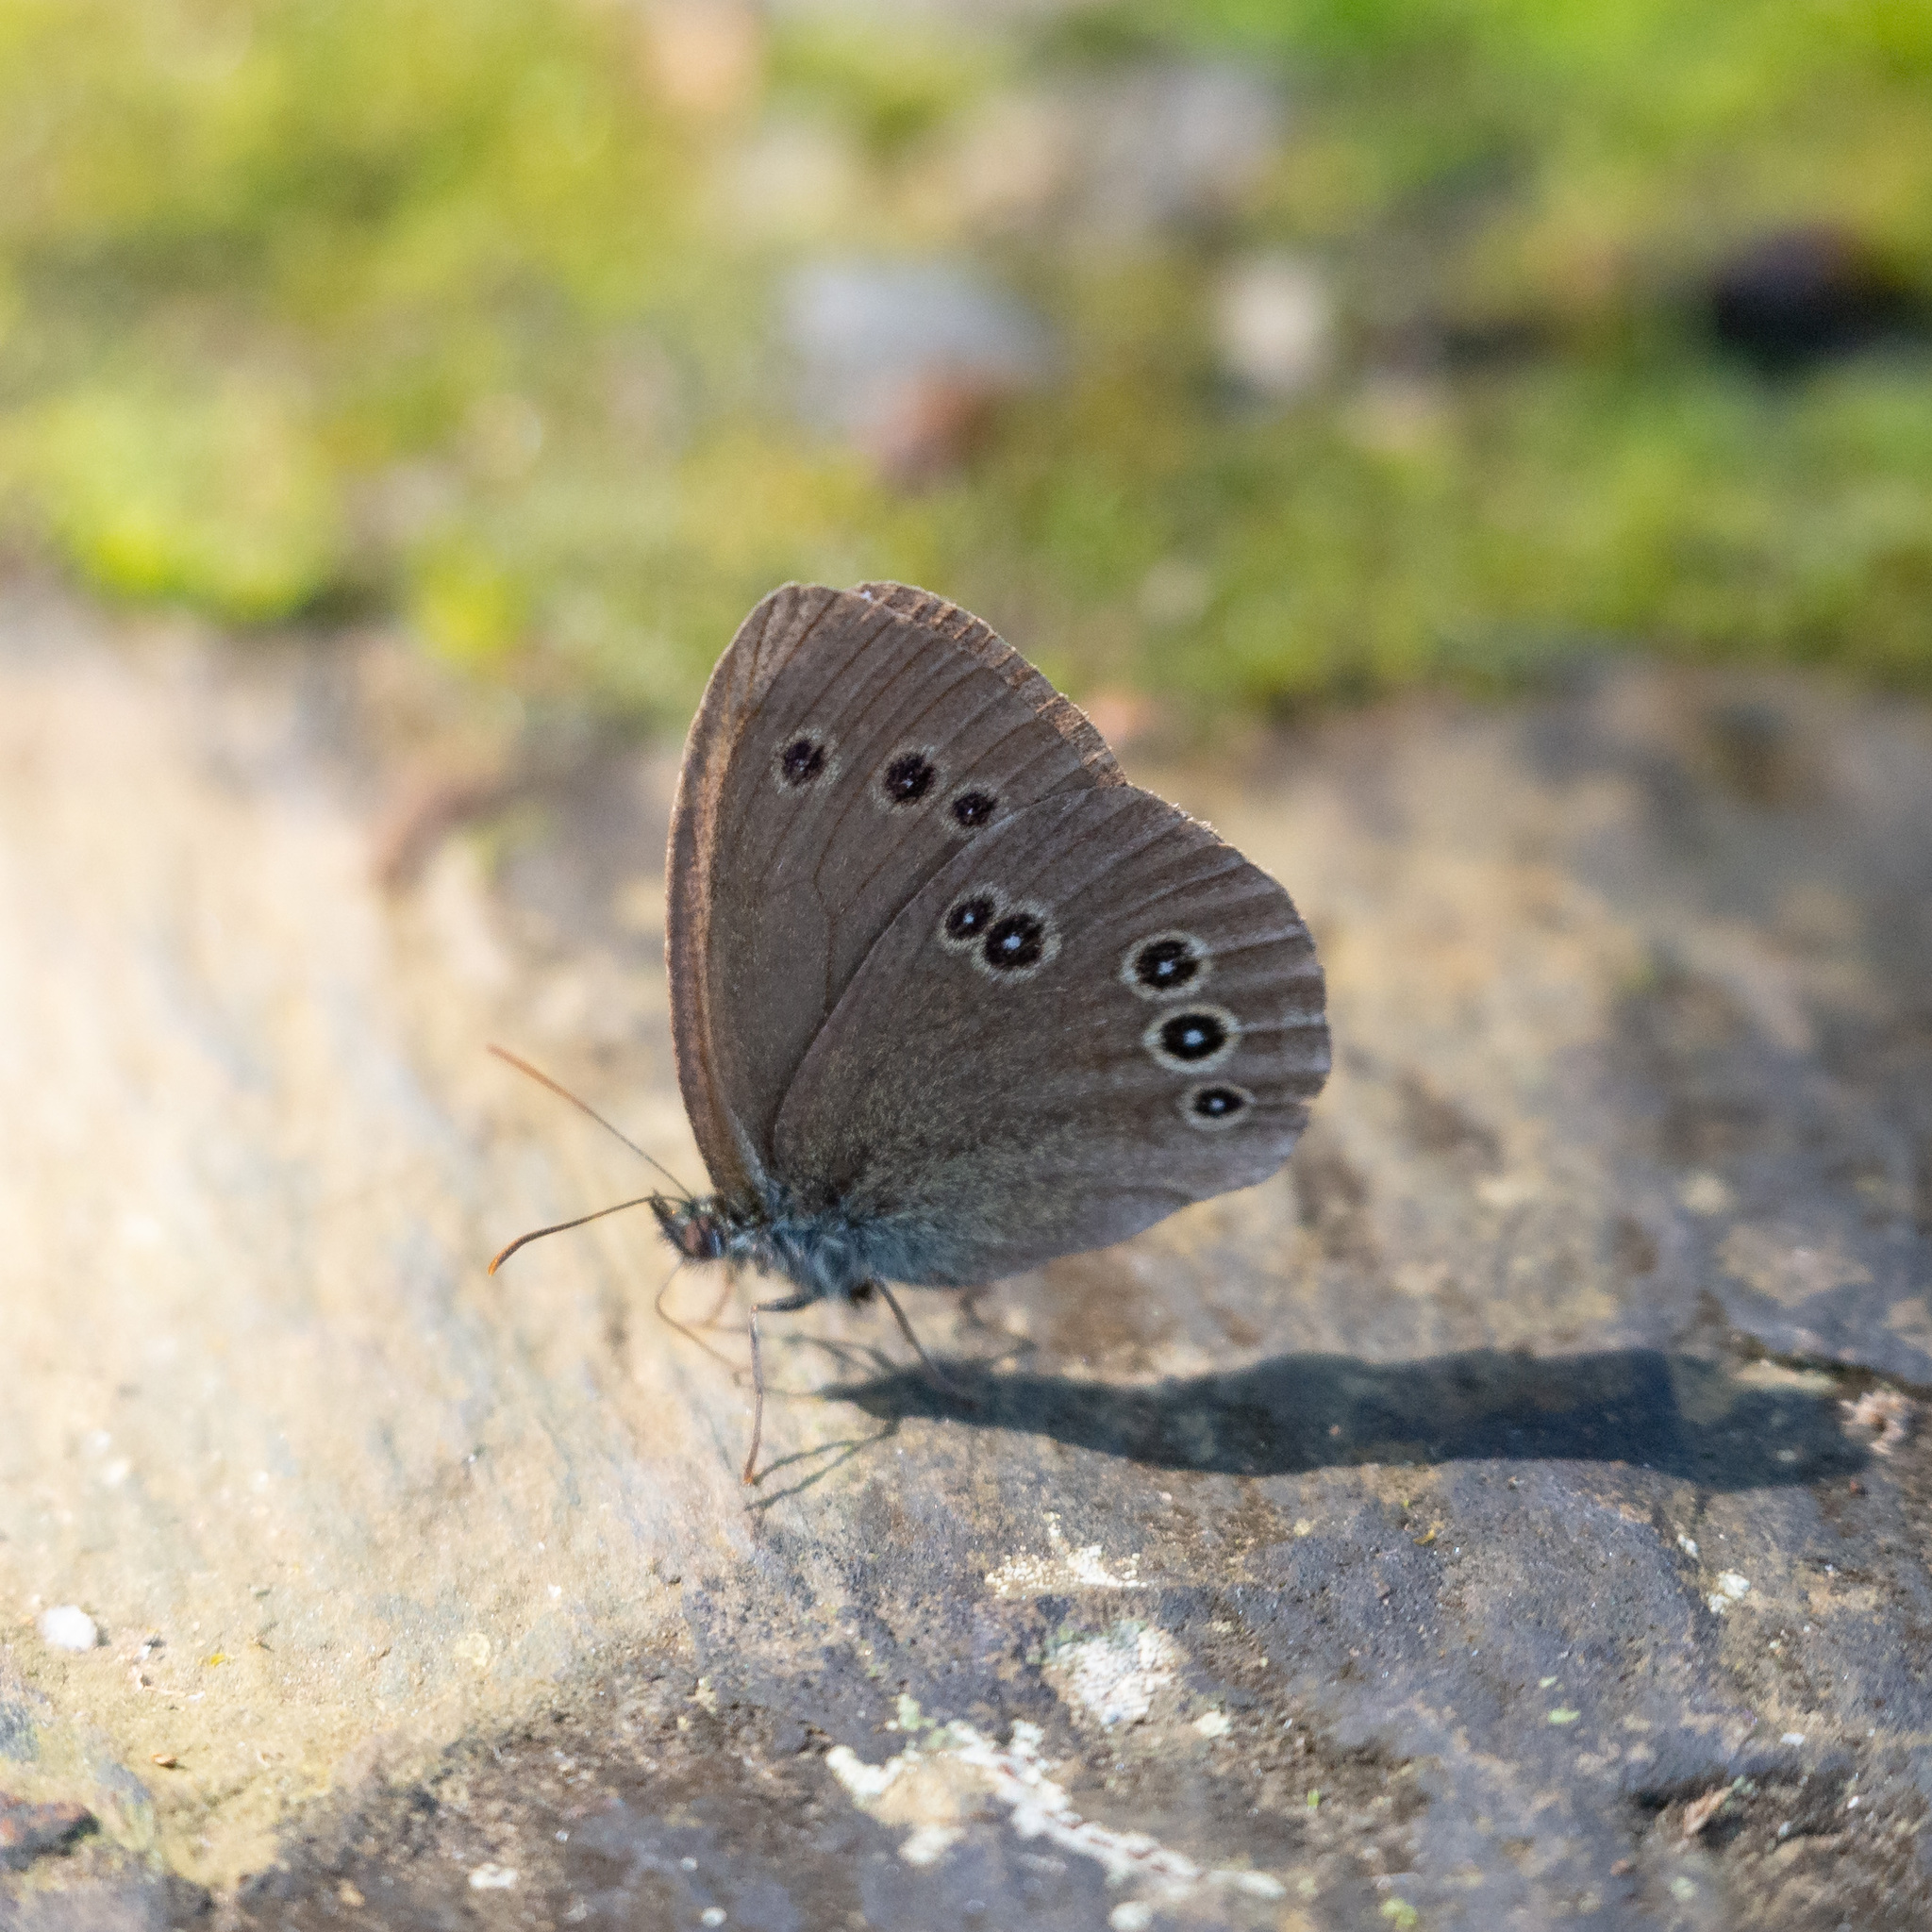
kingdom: Animalia
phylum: Arthropoda
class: Insecta
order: Lepidoptera
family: Nymphalidae
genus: Aphantopus
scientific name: Aphantopus hyperantus
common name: Ringlet
